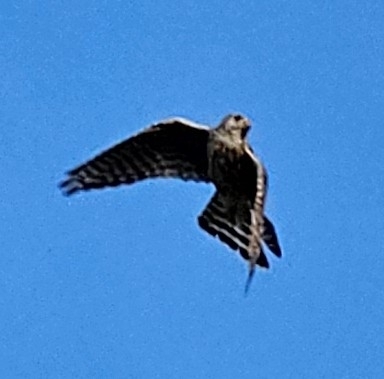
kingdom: Animalia
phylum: Chordata
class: Aves
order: Falconiformes
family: Falconidae
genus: Falco
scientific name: Falco columbarius
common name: Merlin
